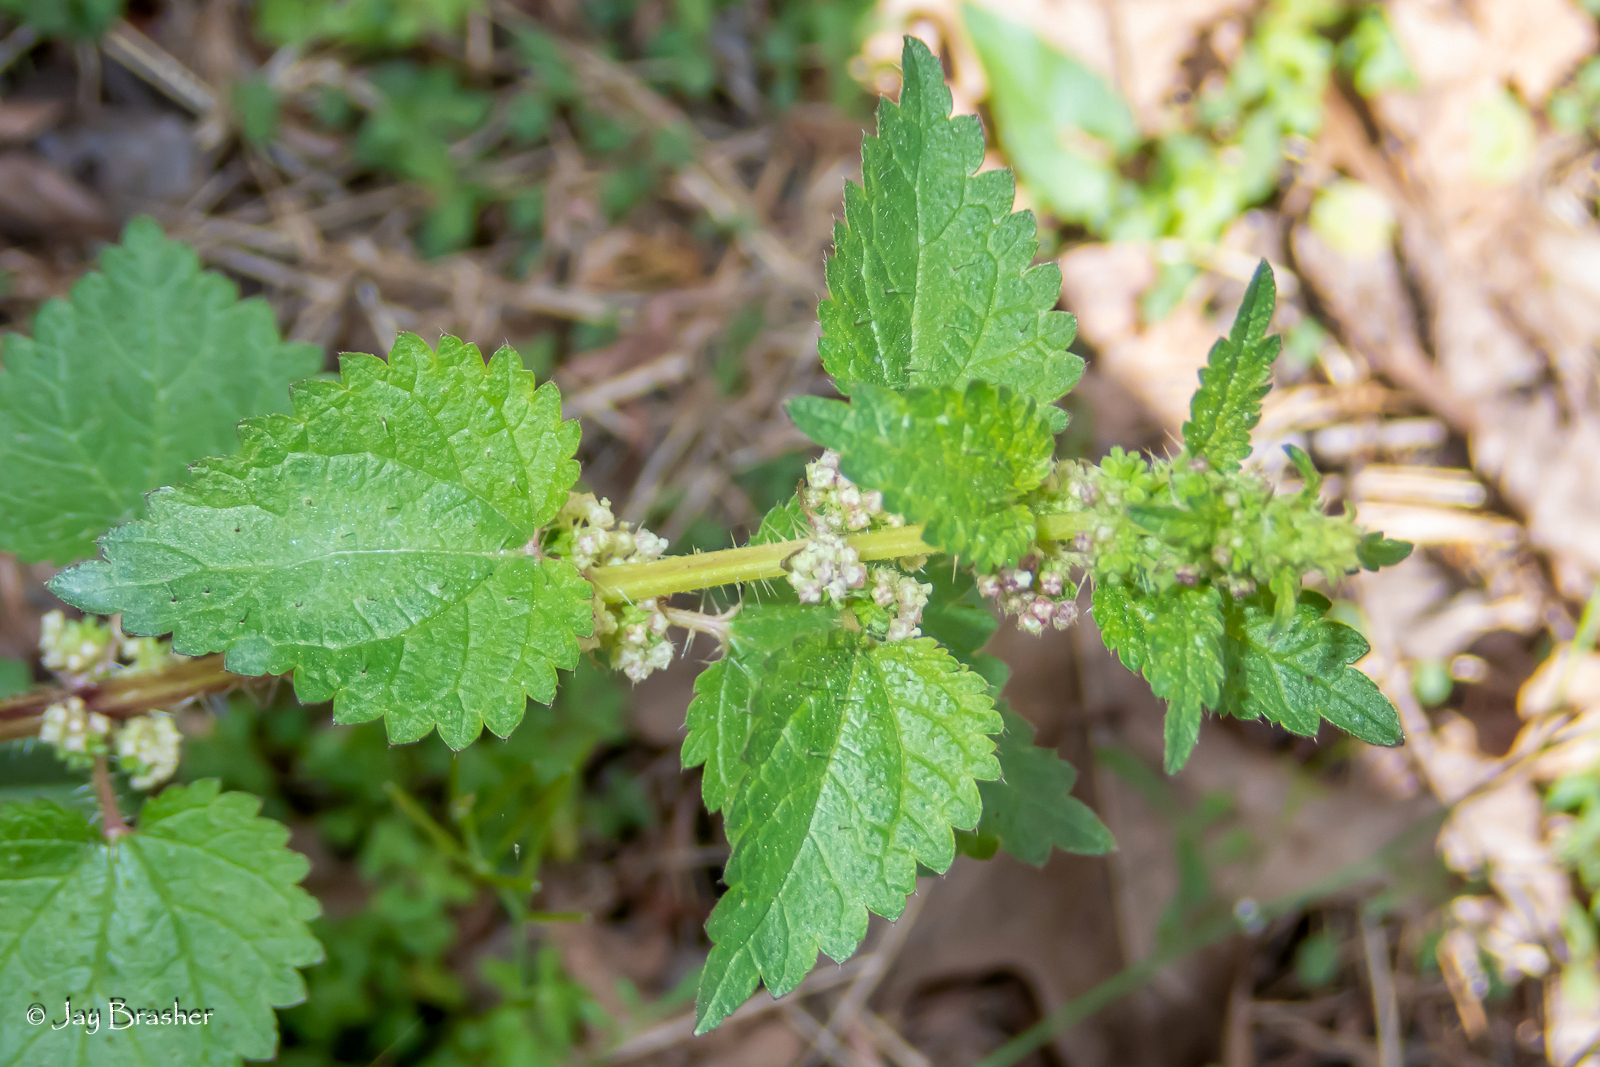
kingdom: Plantae
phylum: Tracheophyta
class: Magnoliopsida
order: Rosales
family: Urticaceae
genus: Urtica
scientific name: Urtica chamaedryoides
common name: Heart-leaf nettle
